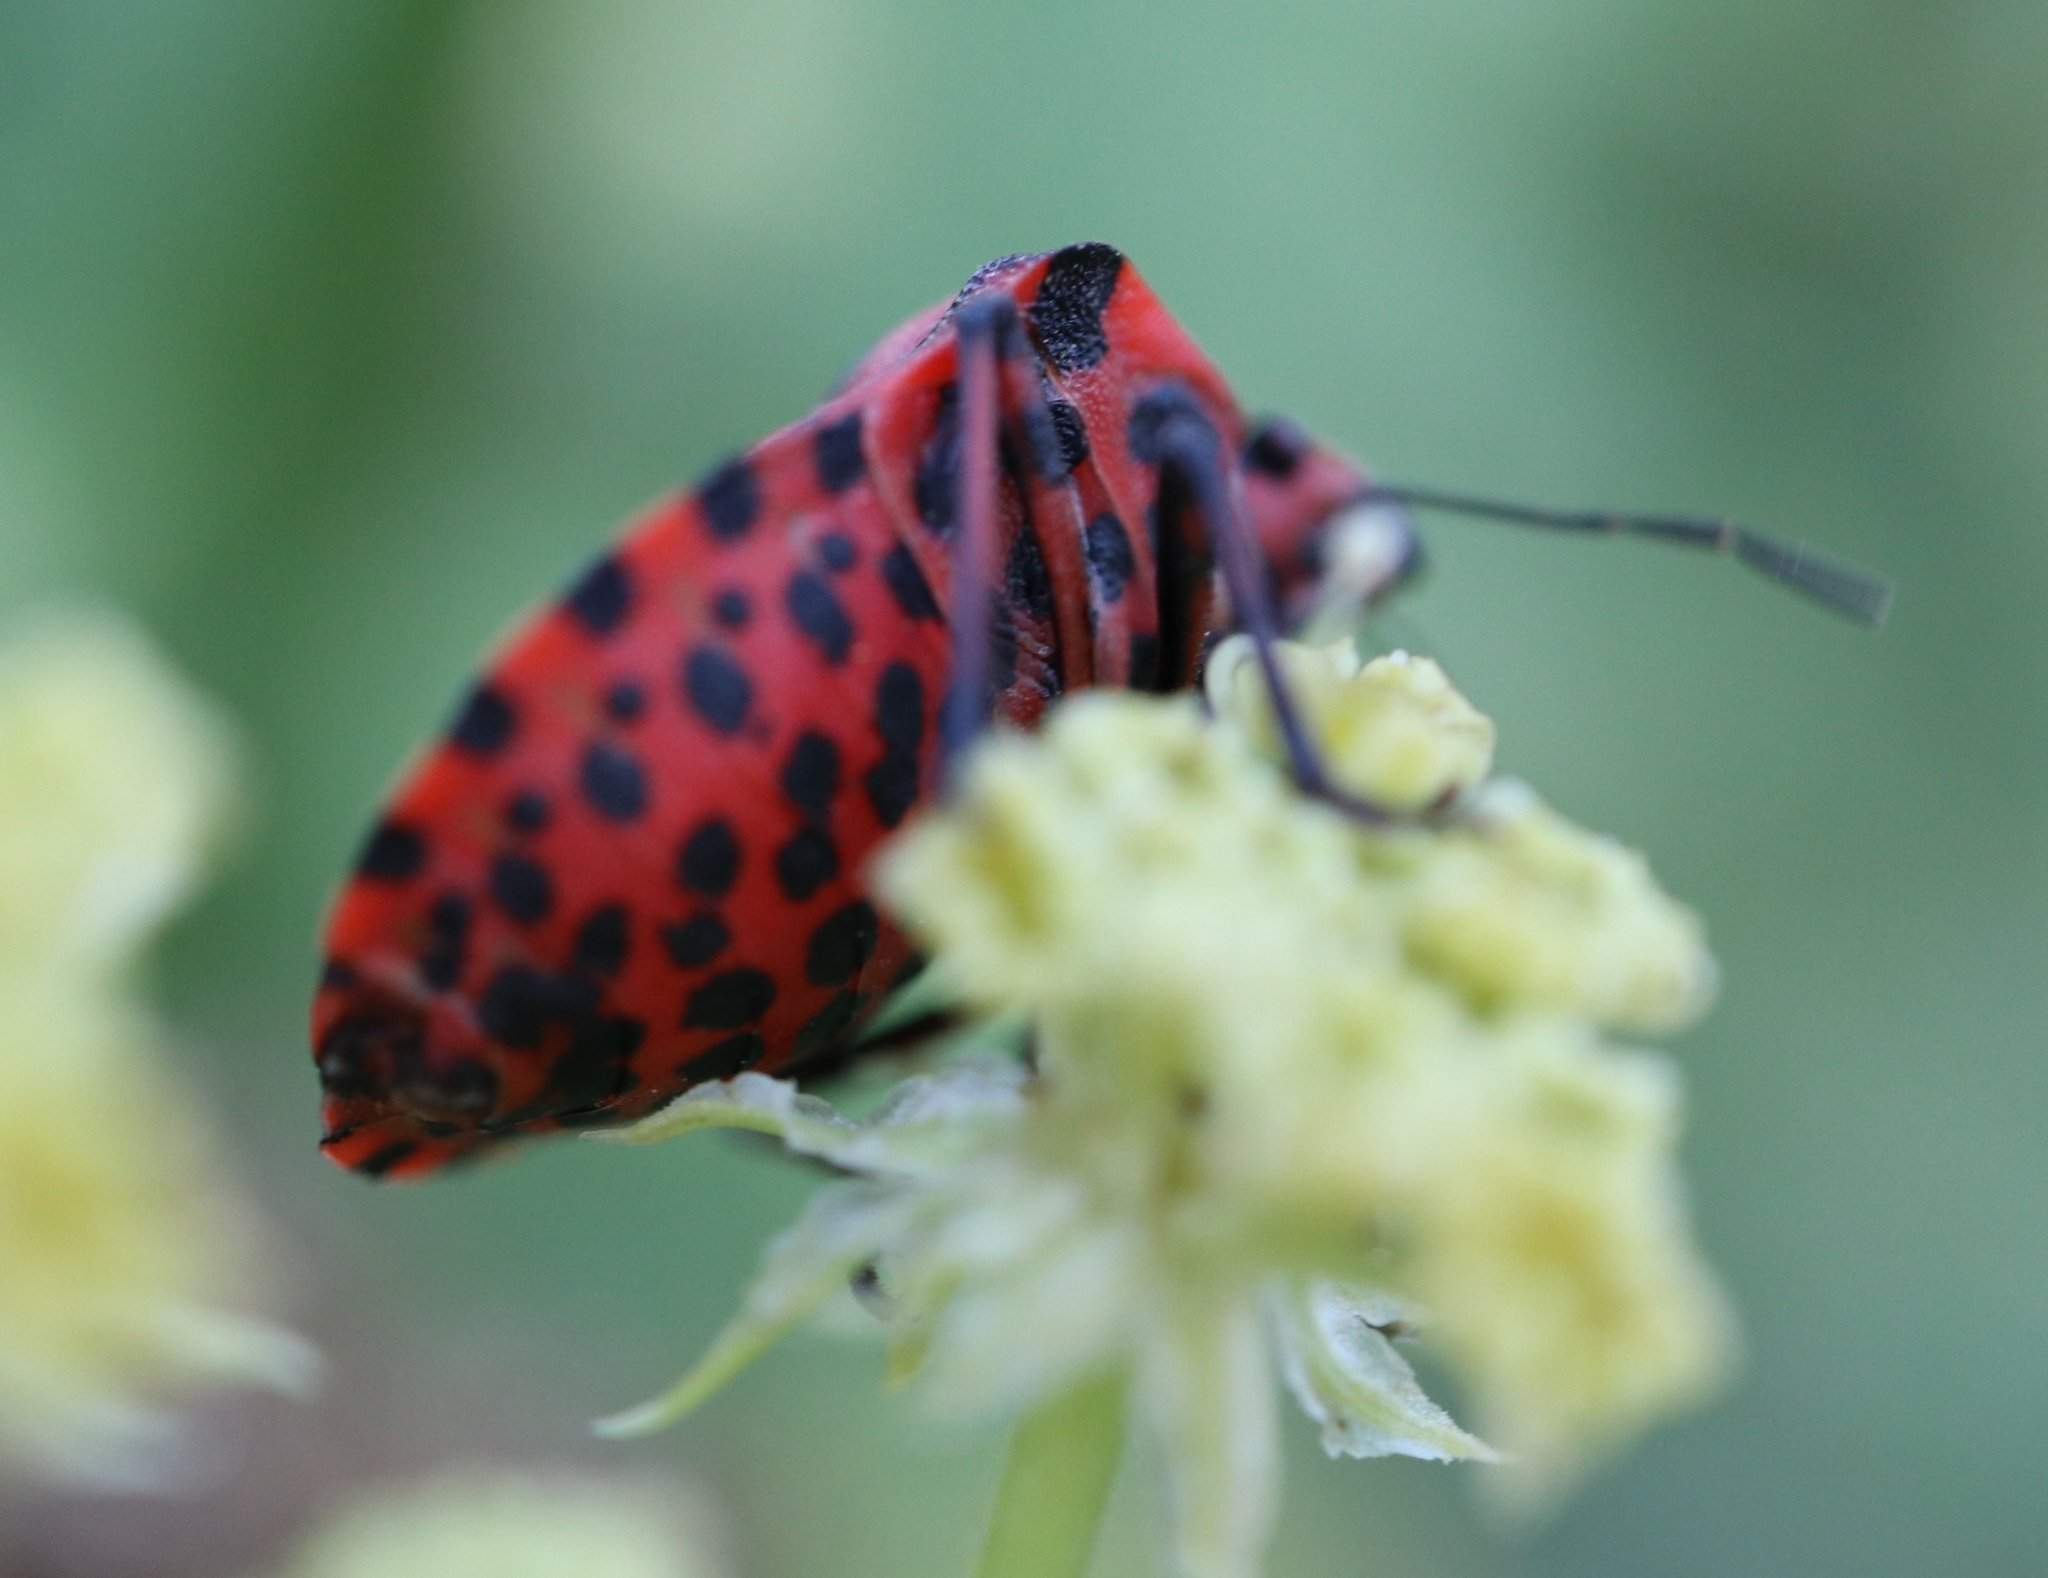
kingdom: Animalia
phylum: Arthropoda
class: Insecta
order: Hemiptera
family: Pentatomidae
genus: Graphosoma
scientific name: Graphosoma italicum
